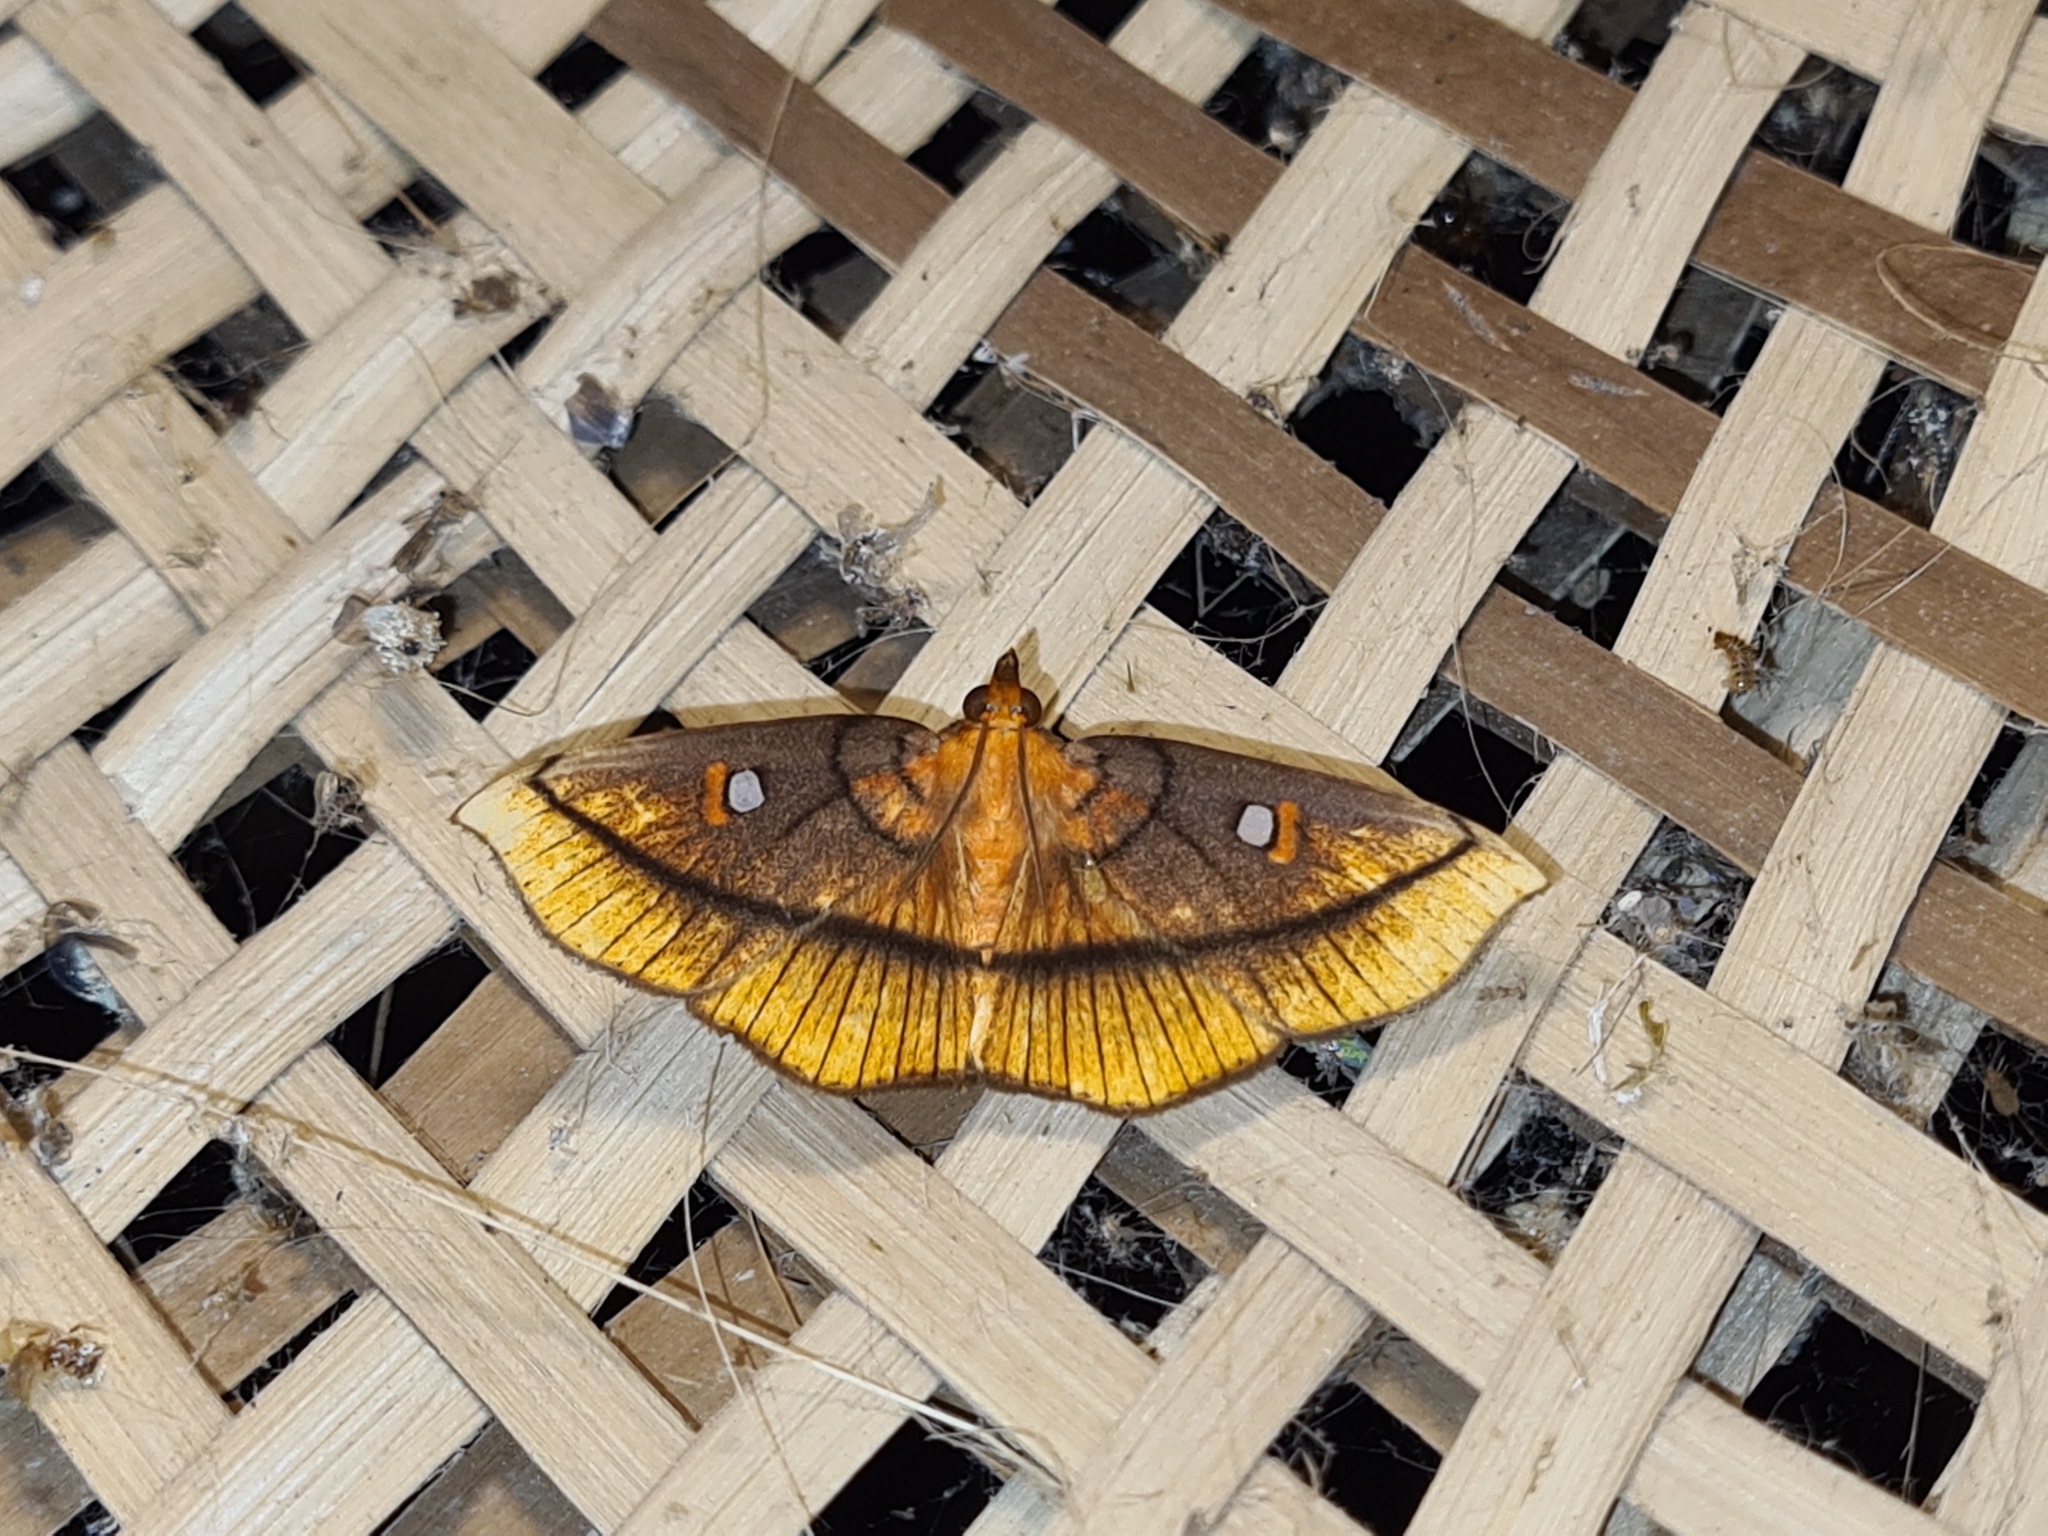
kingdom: Animalia
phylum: Arthropoda
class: Insecta
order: Lepidoptera
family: Crambidae
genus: Midila
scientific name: Midila daphne
